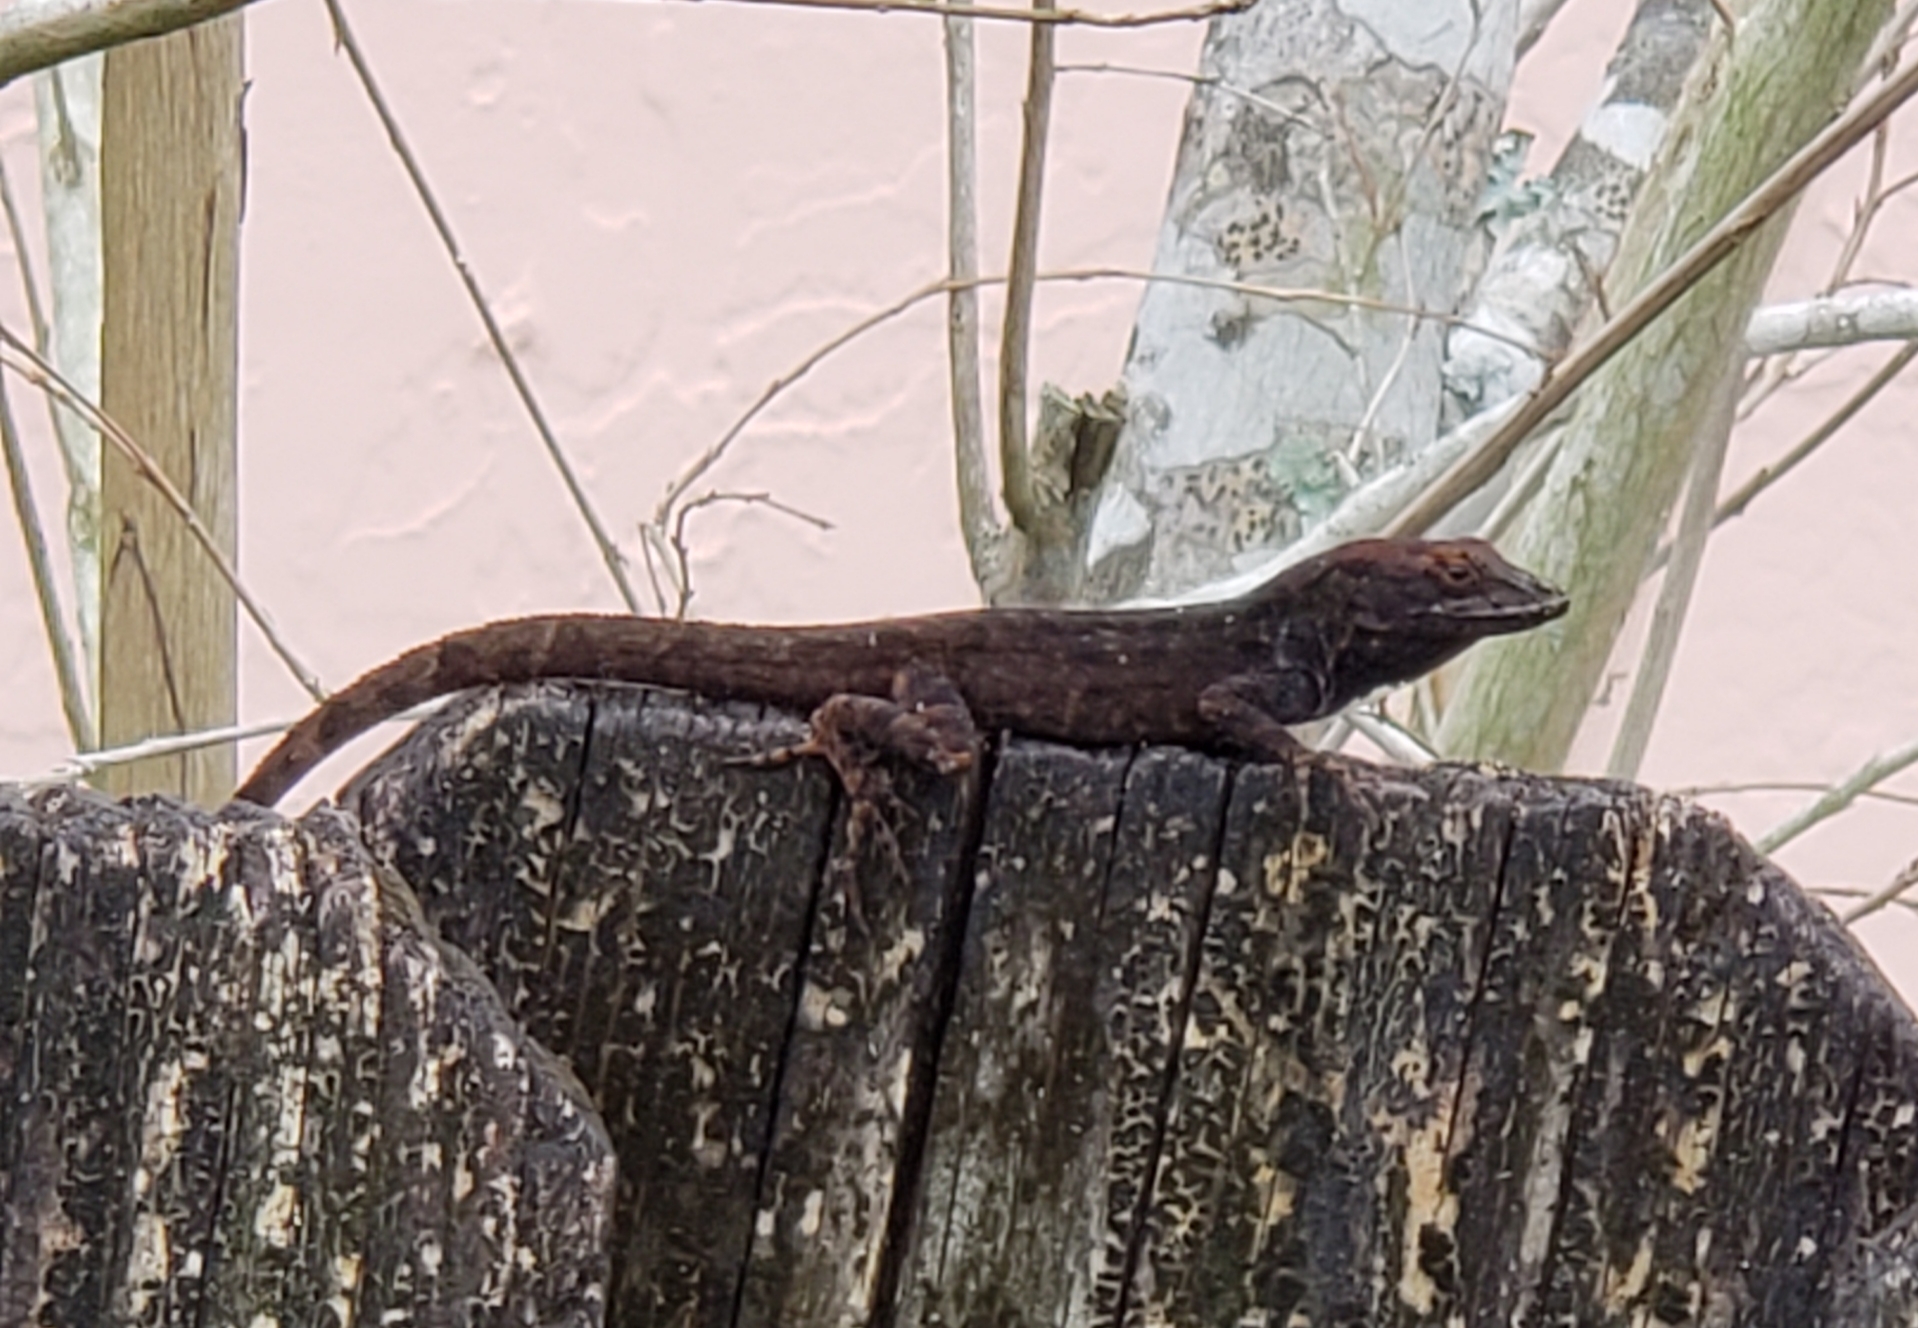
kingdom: Animalia
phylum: Chordata
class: Squamata
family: Dactyloidae
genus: Anolis
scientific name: Anolis sagrei
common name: Brown anole
